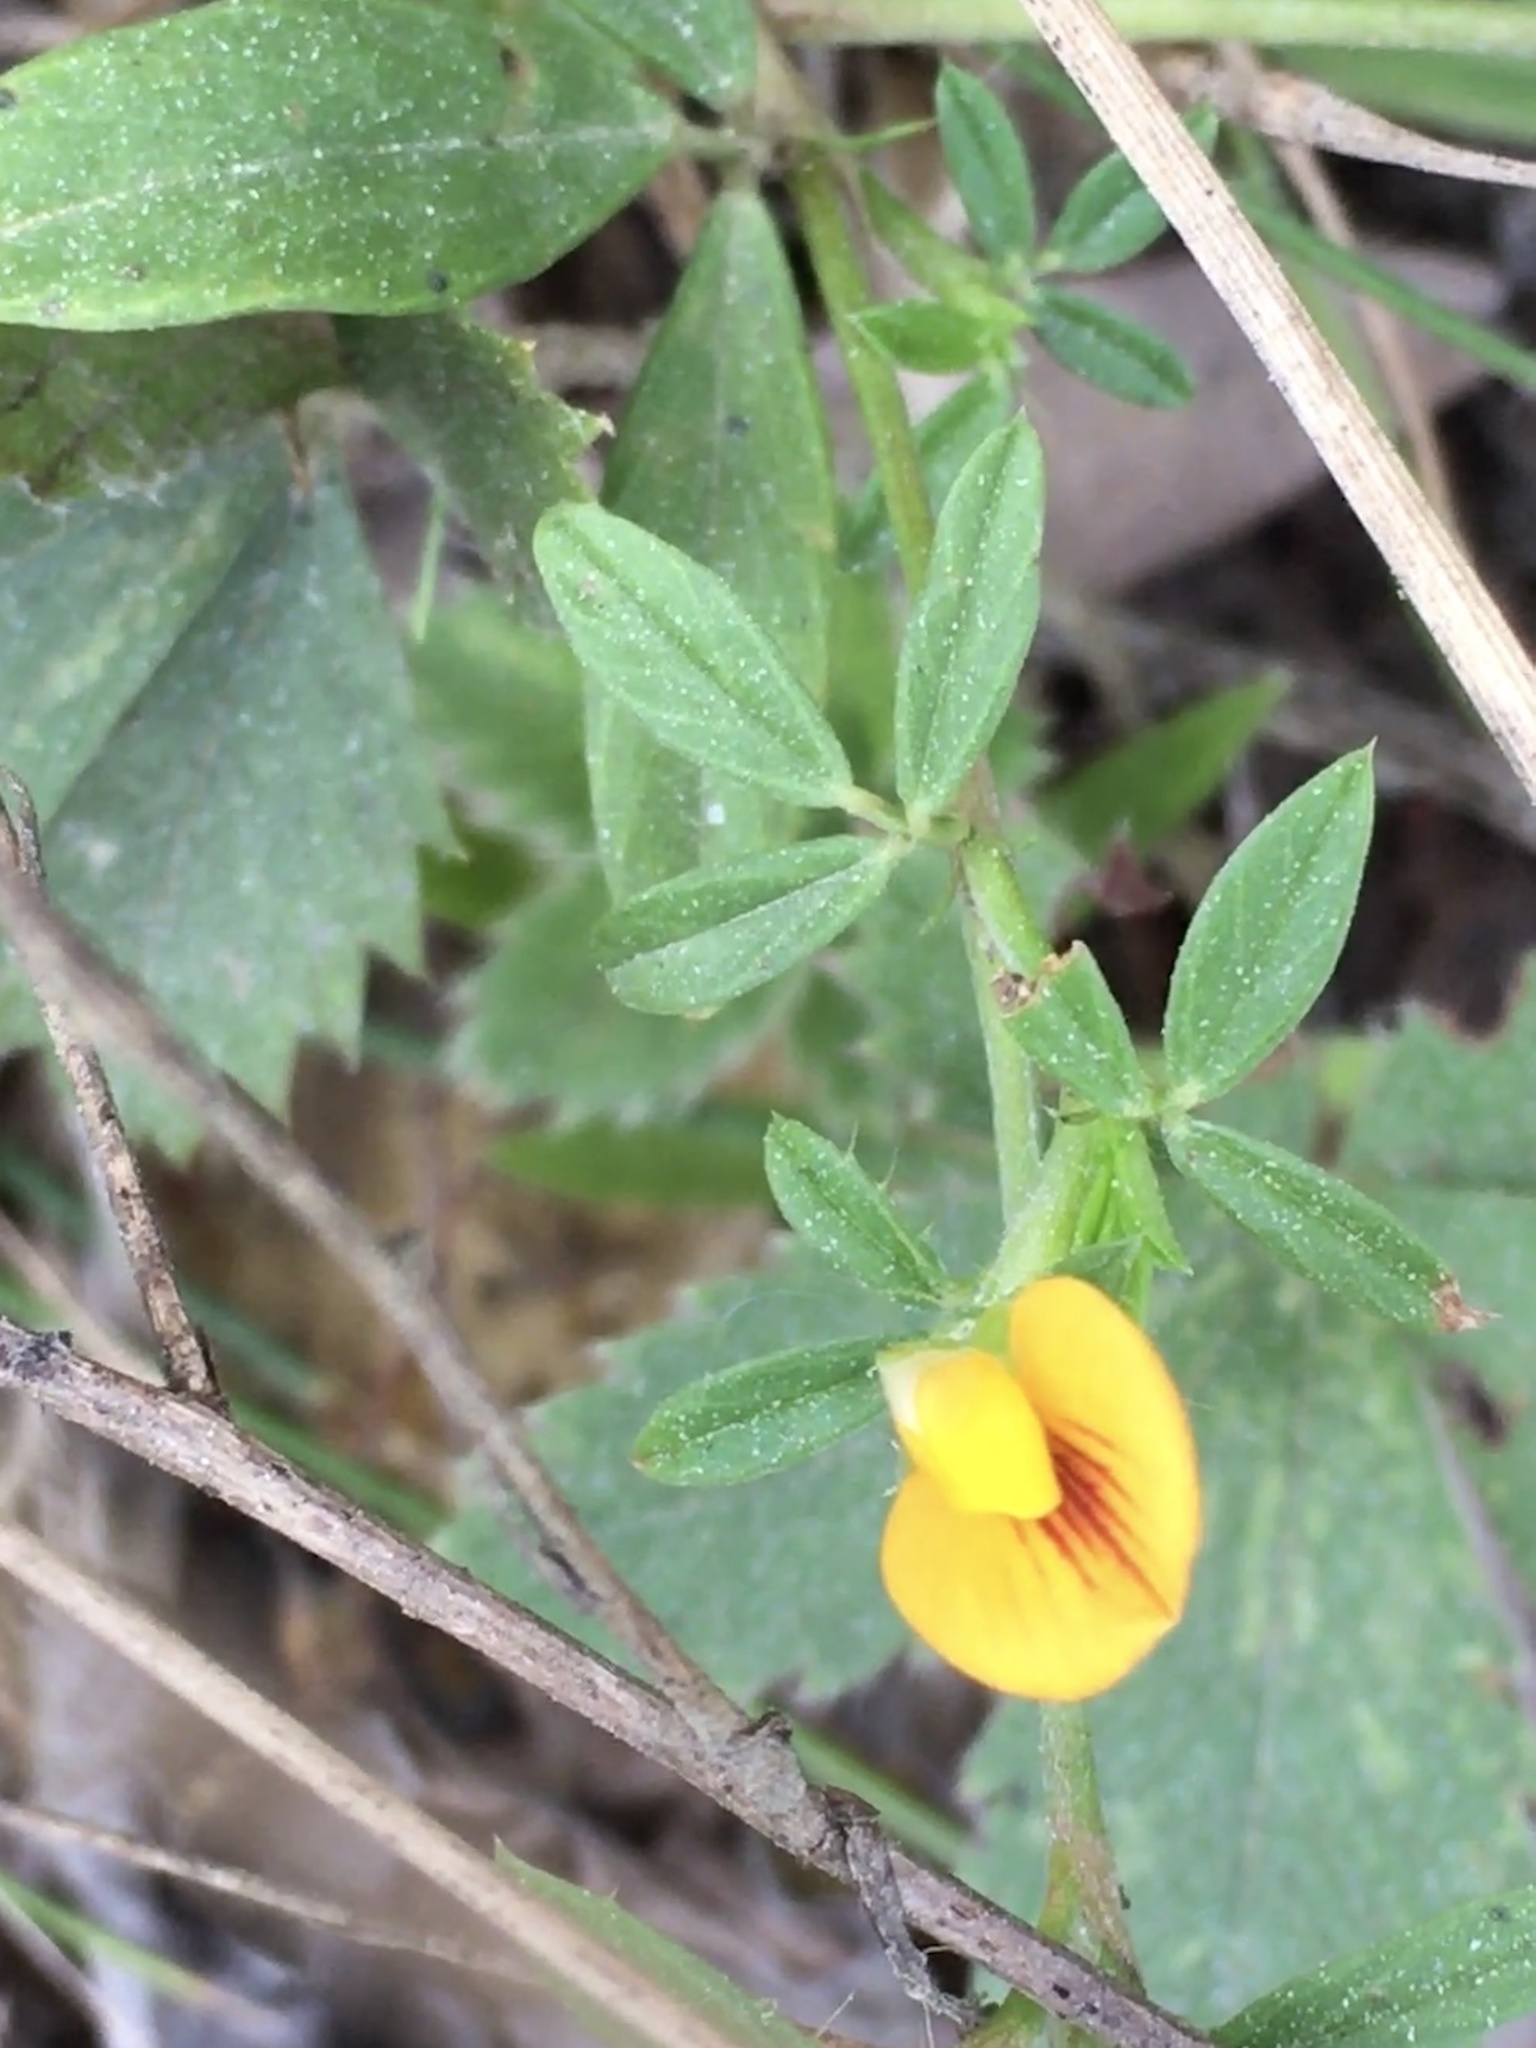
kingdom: Plantae
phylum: Tracheophyta
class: Magnoliopsida
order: Fabales
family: Fabaceae
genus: Stylosanthes
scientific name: Stylosanthes biflora
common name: Two-flower pencil-flower
